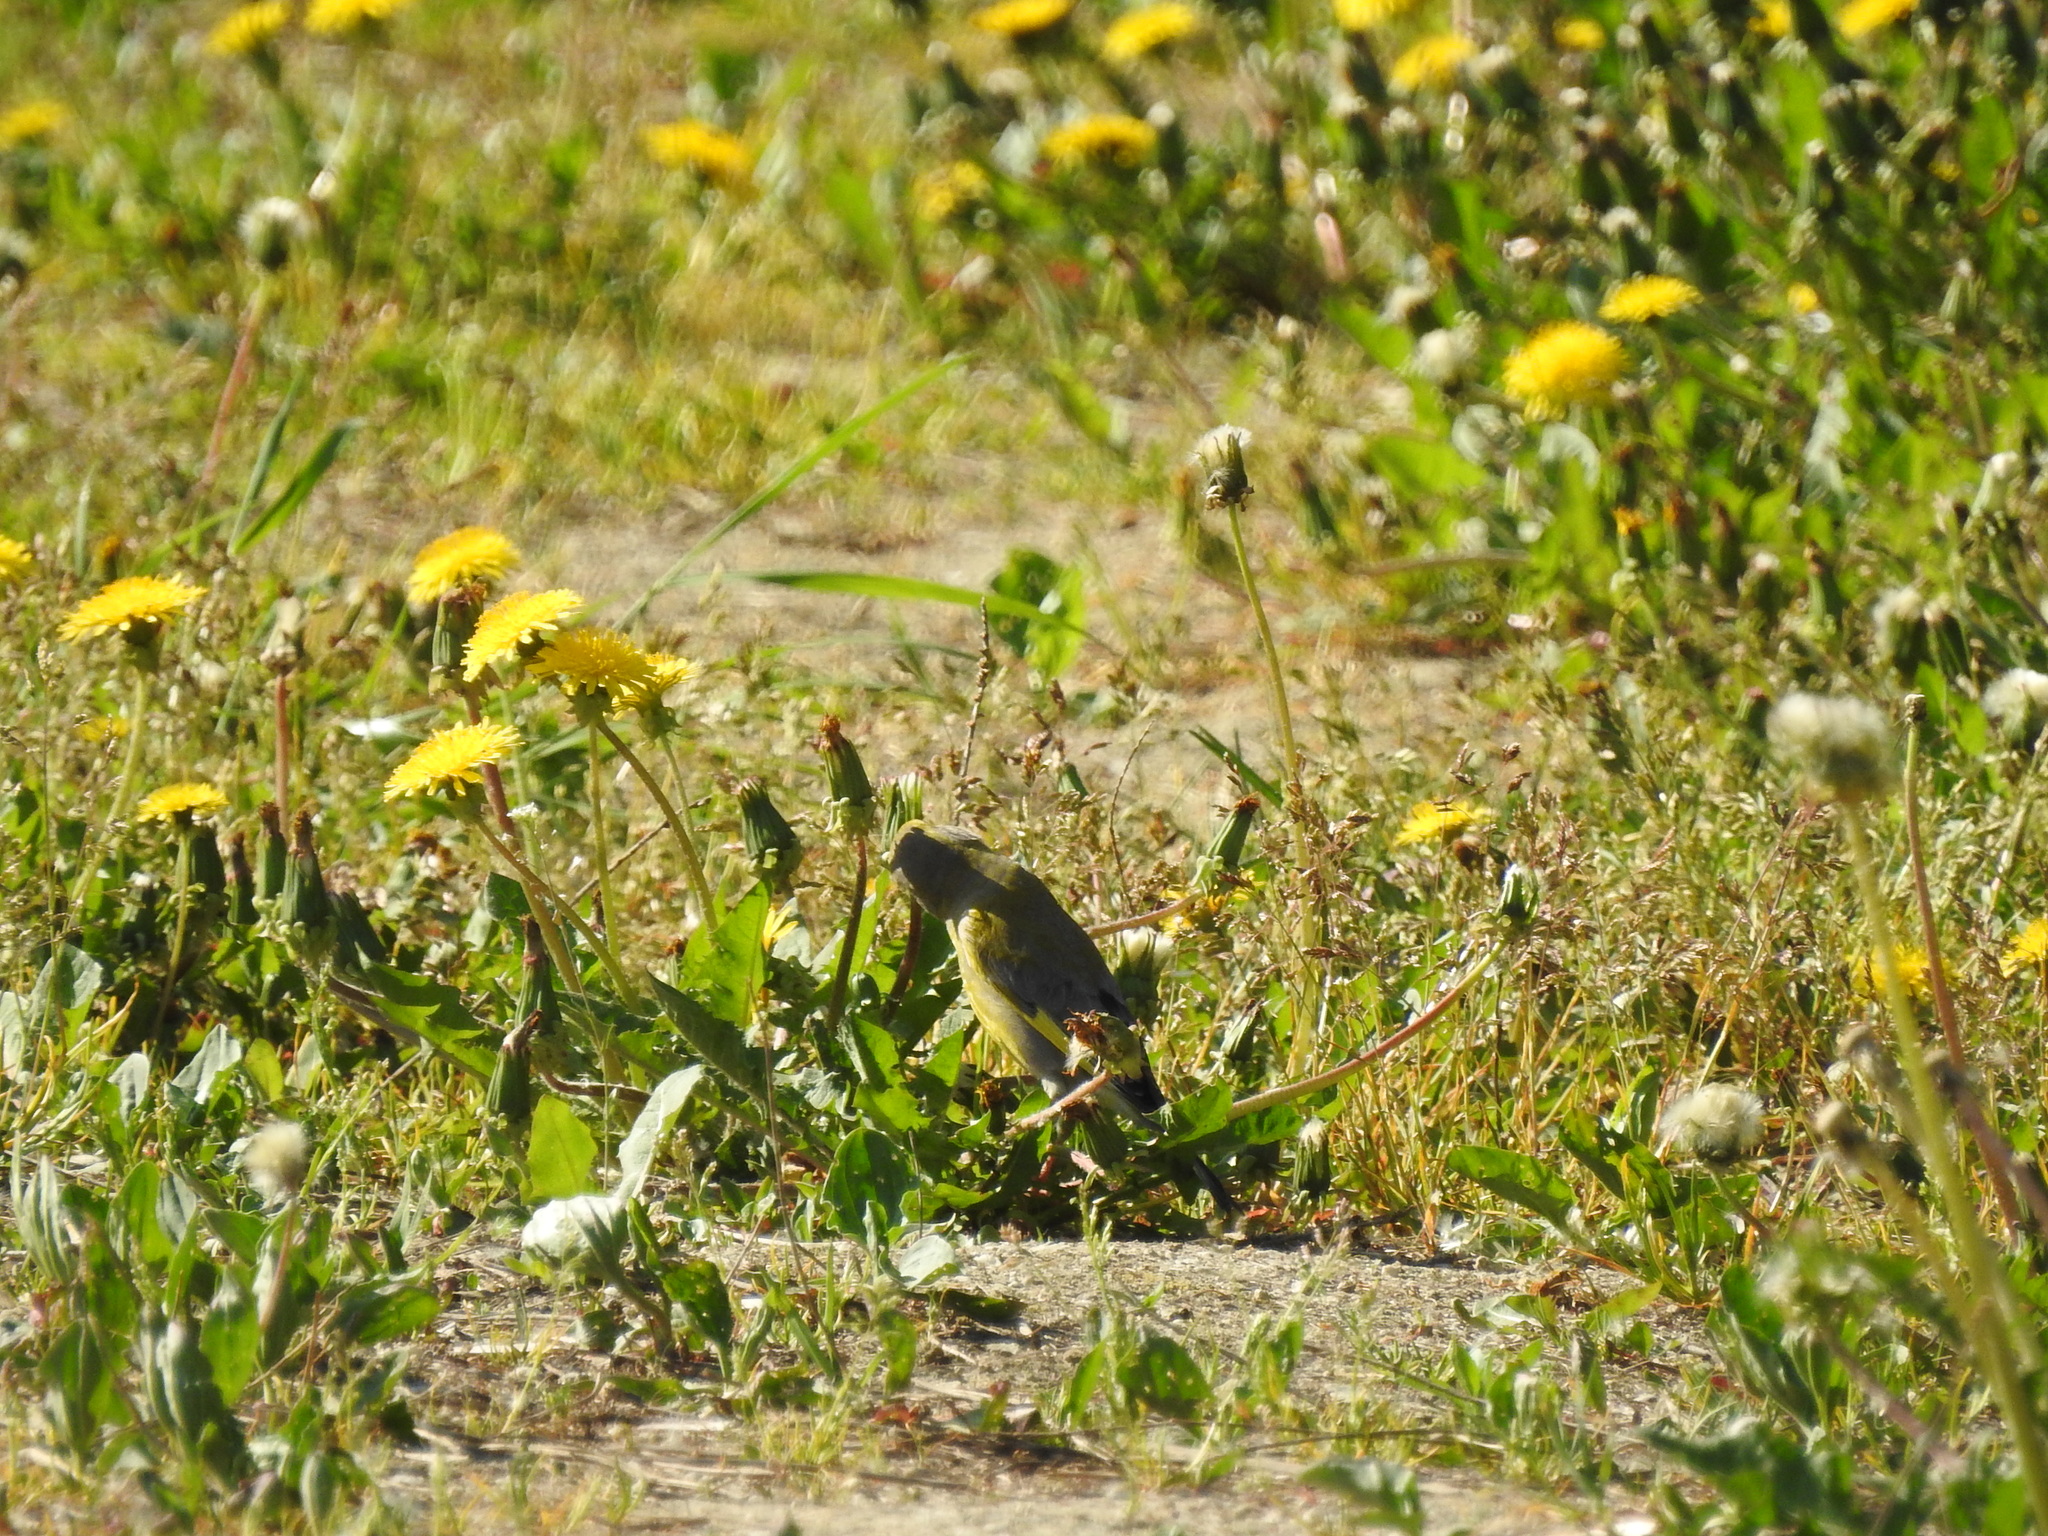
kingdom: Plantae
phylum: Tracheophyta
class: Liliopsida
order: Poales
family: Poaceae
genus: Chloris
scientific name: Chloris chloris
